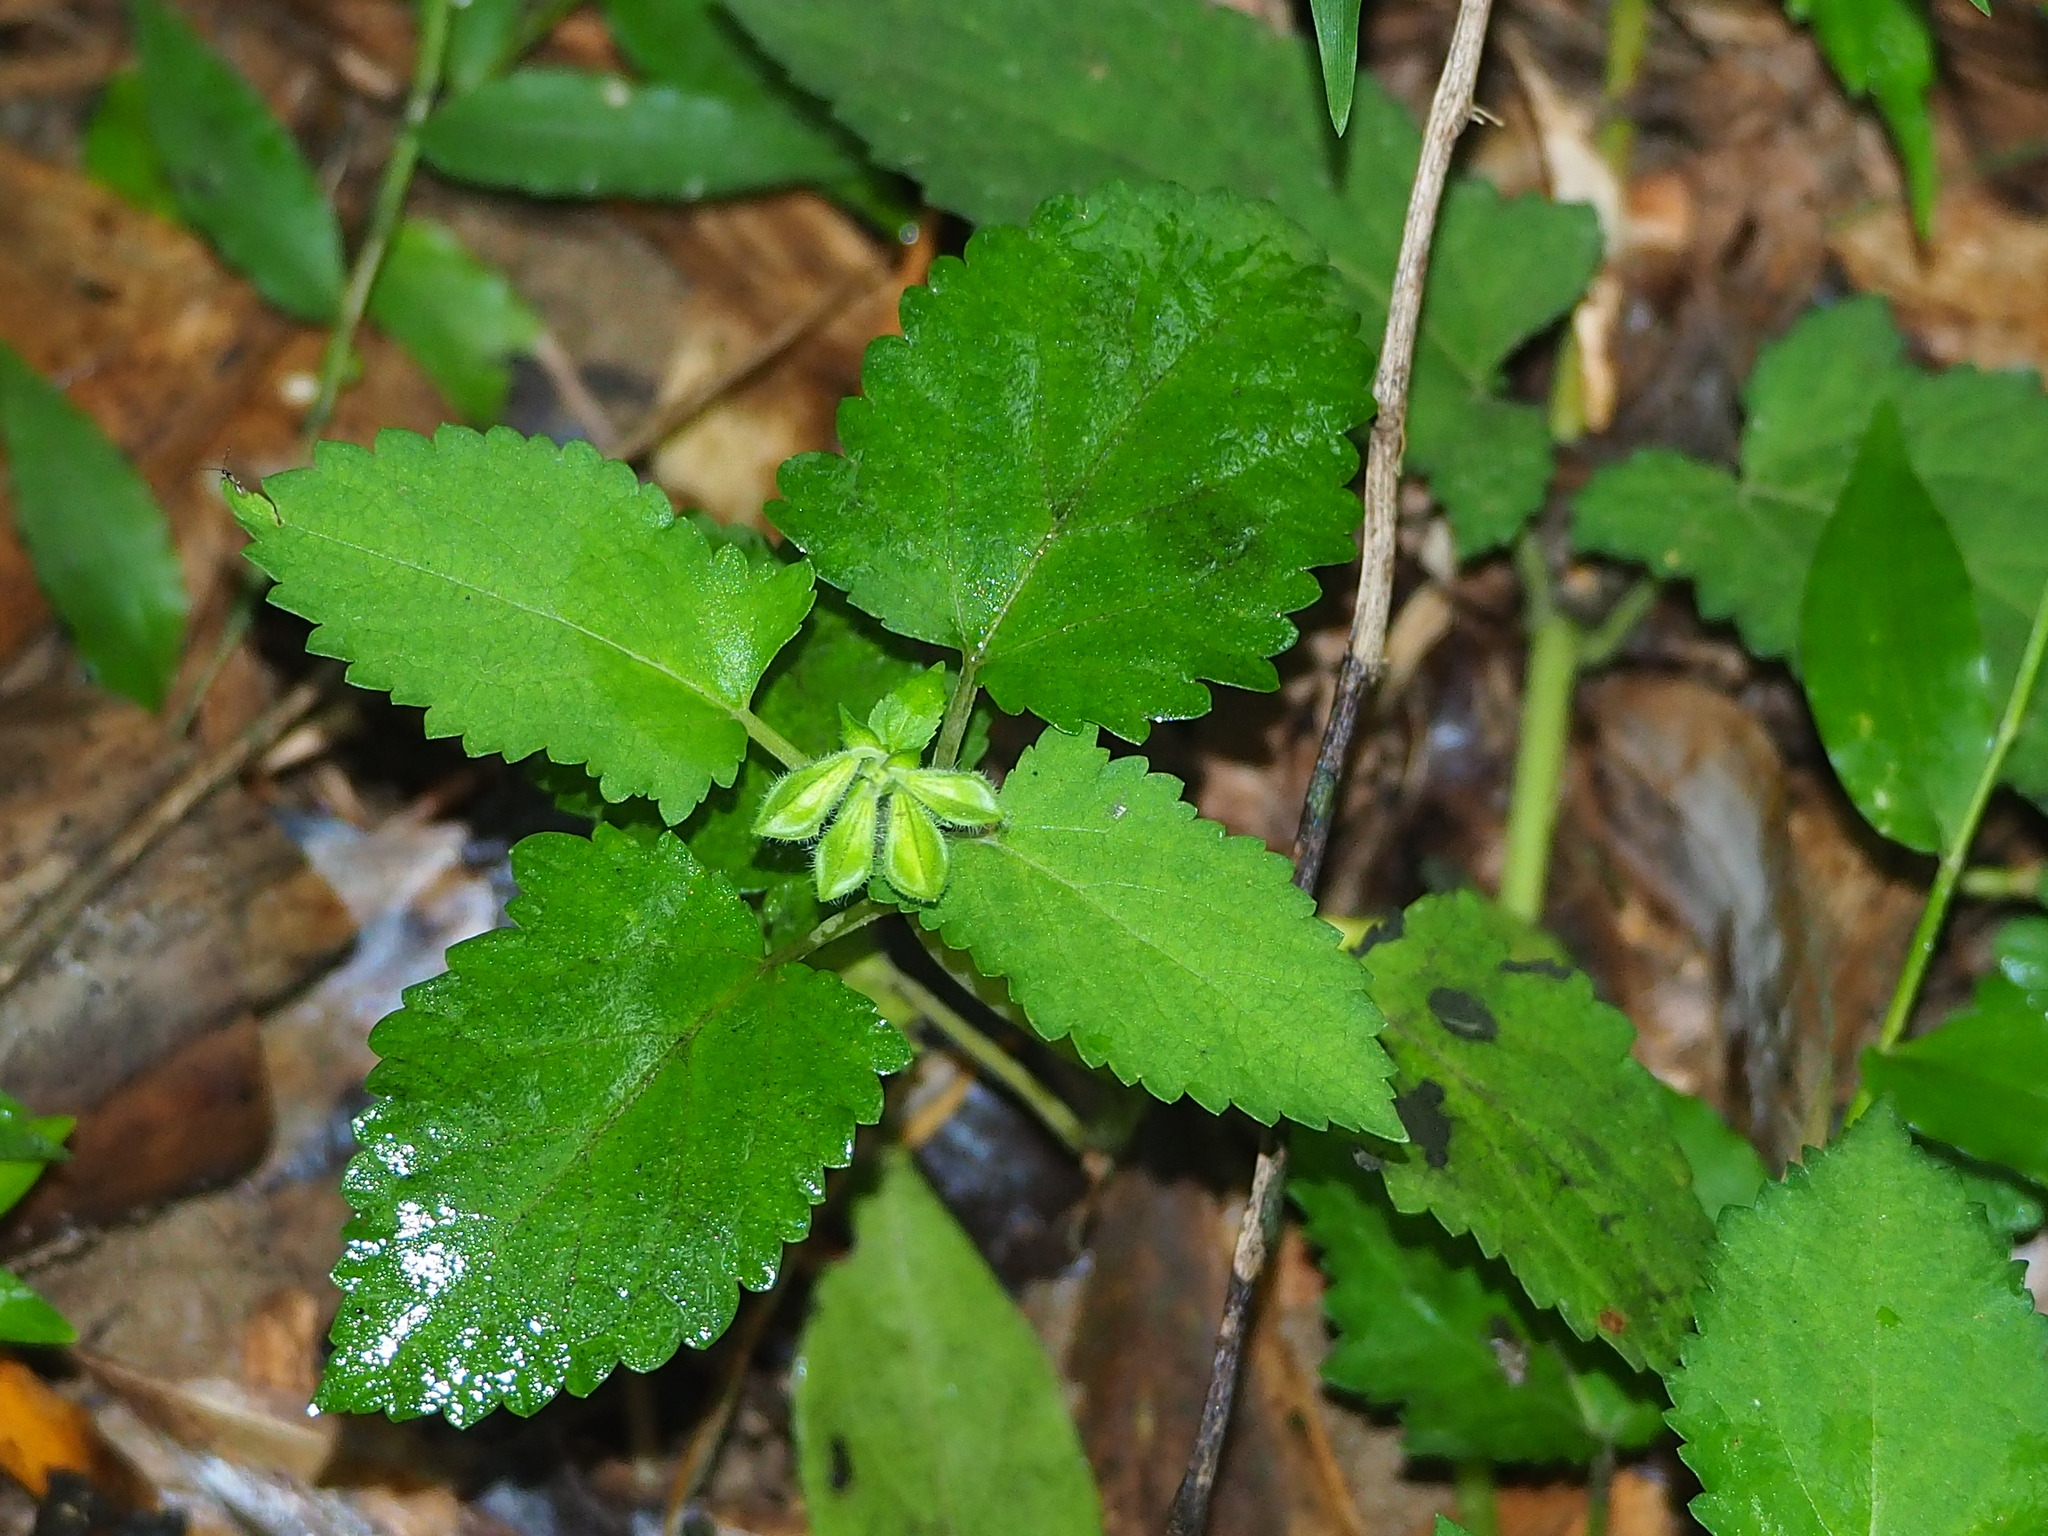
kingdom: Plantae
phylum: Tracheophyta
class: Magnoliopsida
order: Lamiales
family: Lamiaceae
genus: Salvia
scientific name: Salvia nipponica
